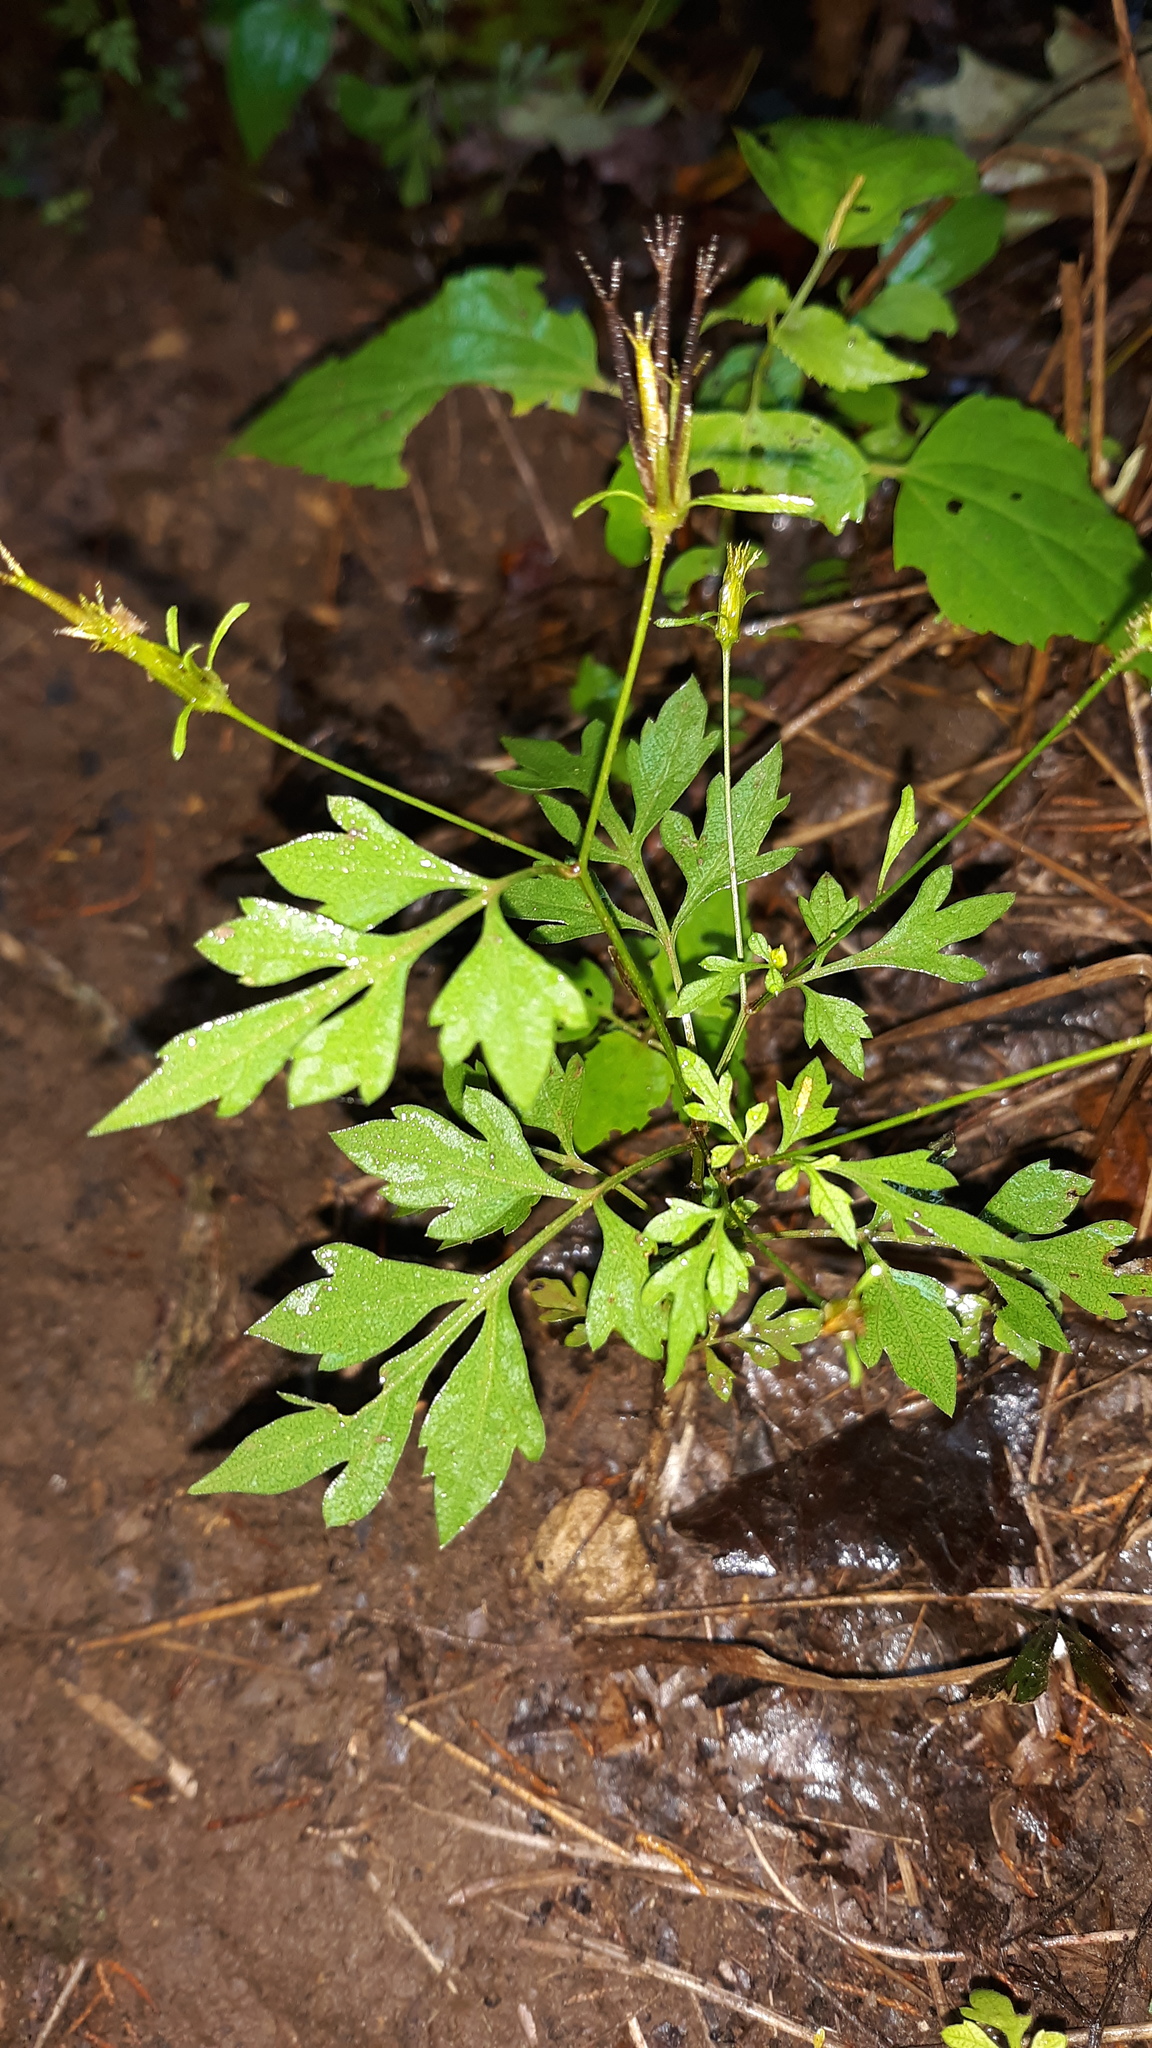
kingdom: Plantae
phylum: Tracheophyta
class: Magnoliopsida
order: Asterales
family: Asteraceae
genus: Bidens
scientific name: Bidens bipinnata
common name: Spanish-needles
